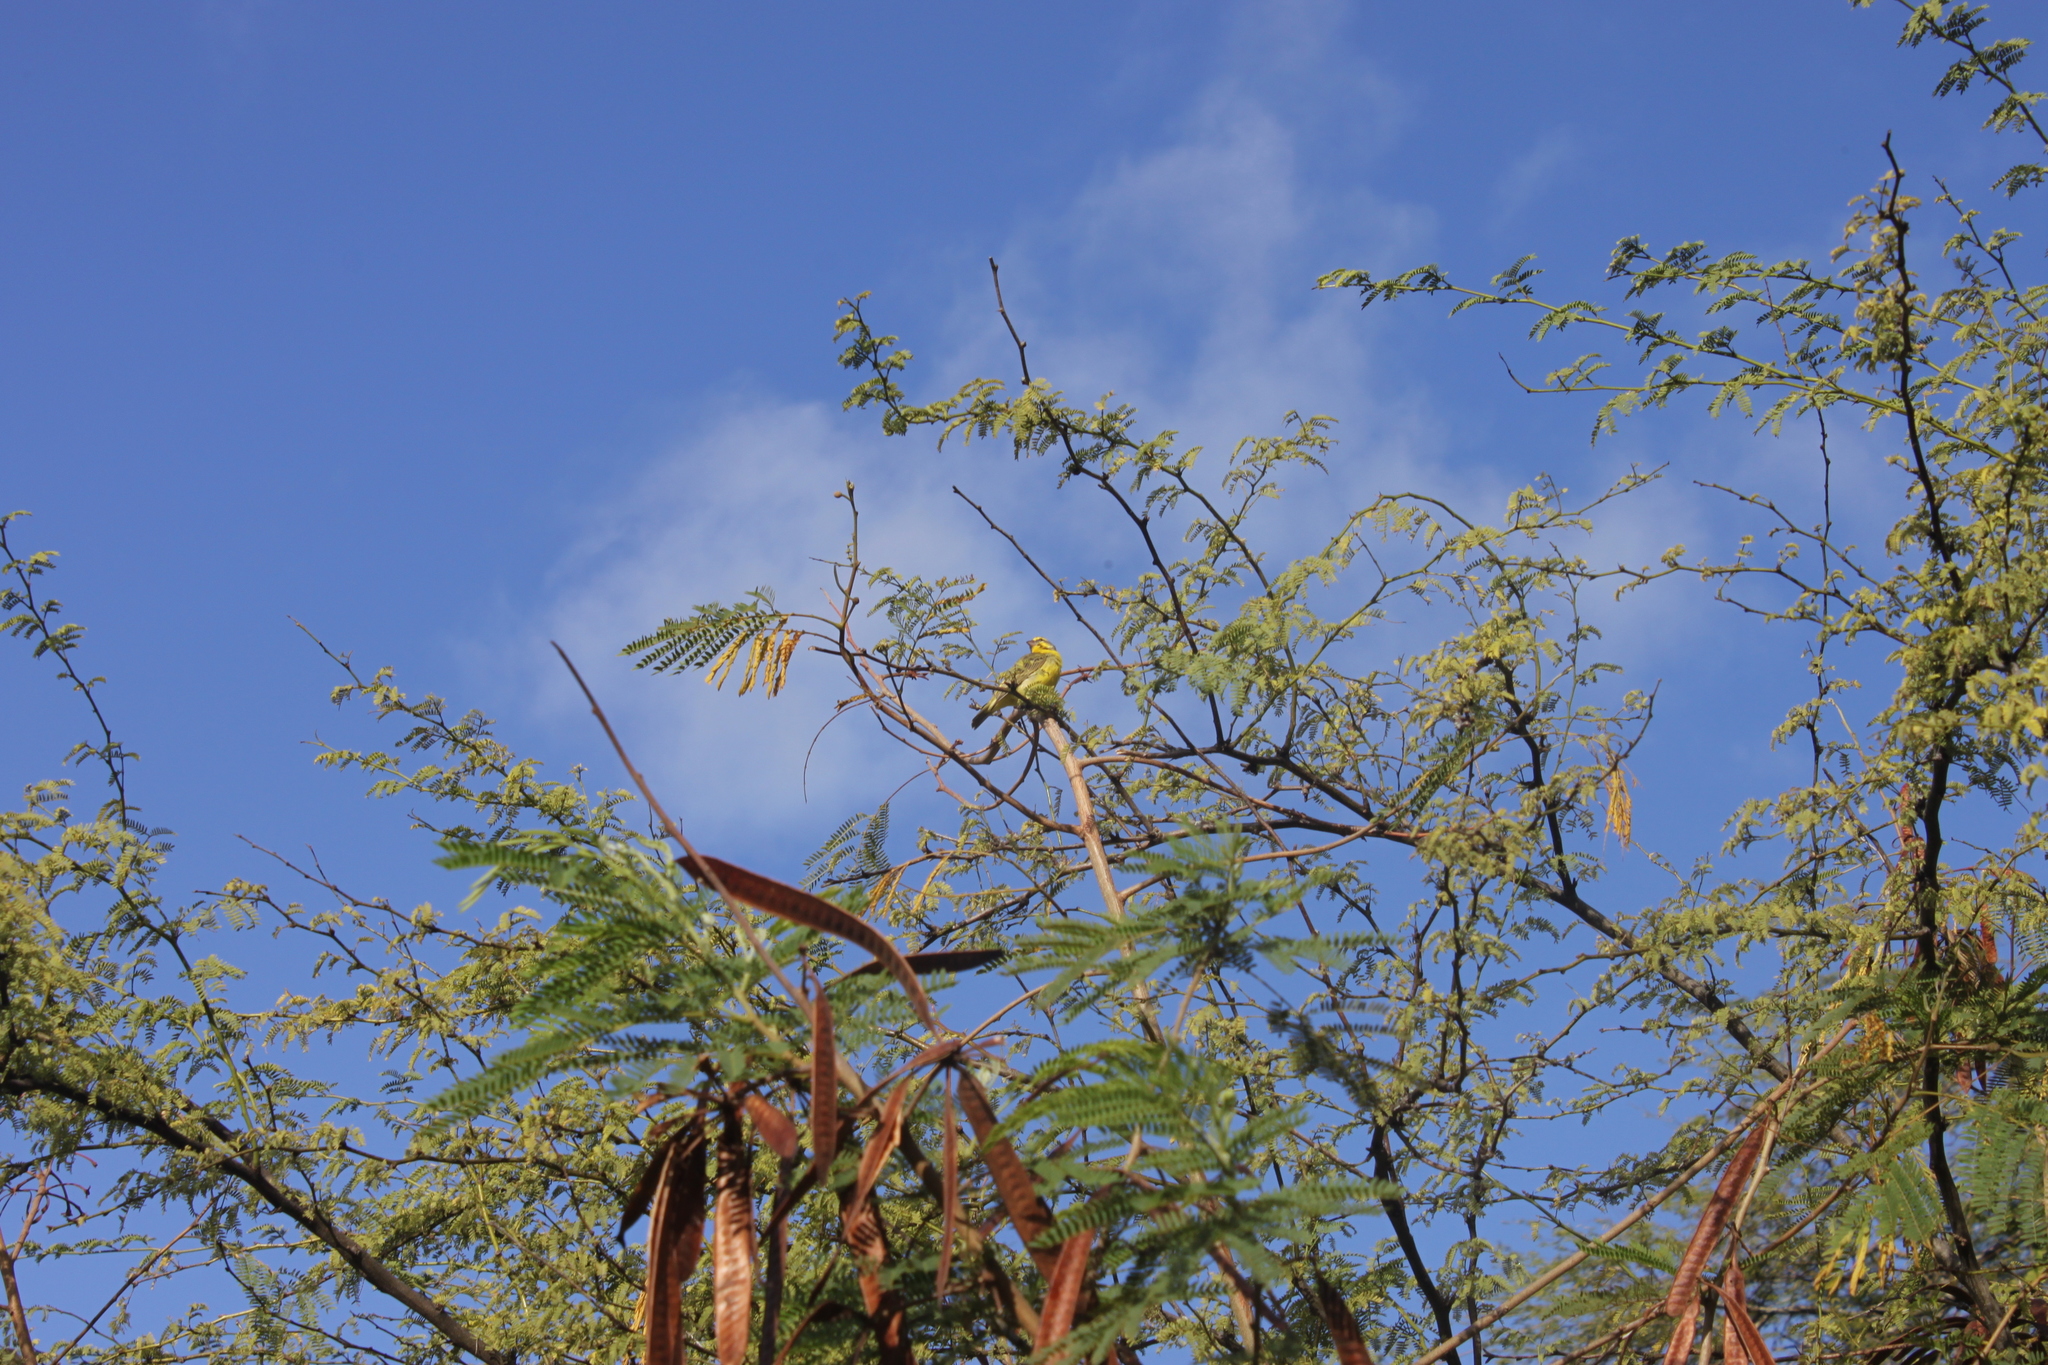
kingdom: Animalia
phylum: Chordata
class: Aves
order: Passeriformes
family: Fringillidae
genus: Crithagra
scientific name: Crithagra mozambica
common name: Yellow-fronted canary
